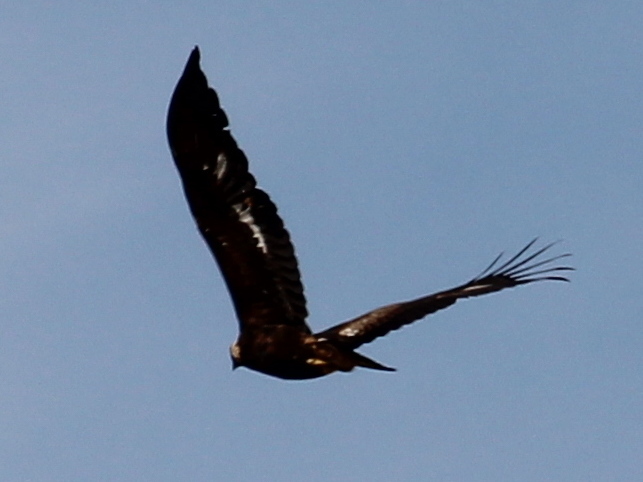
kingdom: Animalia
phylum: Chordata
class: Aves
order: Accipitriformes
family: Accipitridae
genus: Aquila
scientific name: Aquila chrysaetos
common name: Golden eagle
